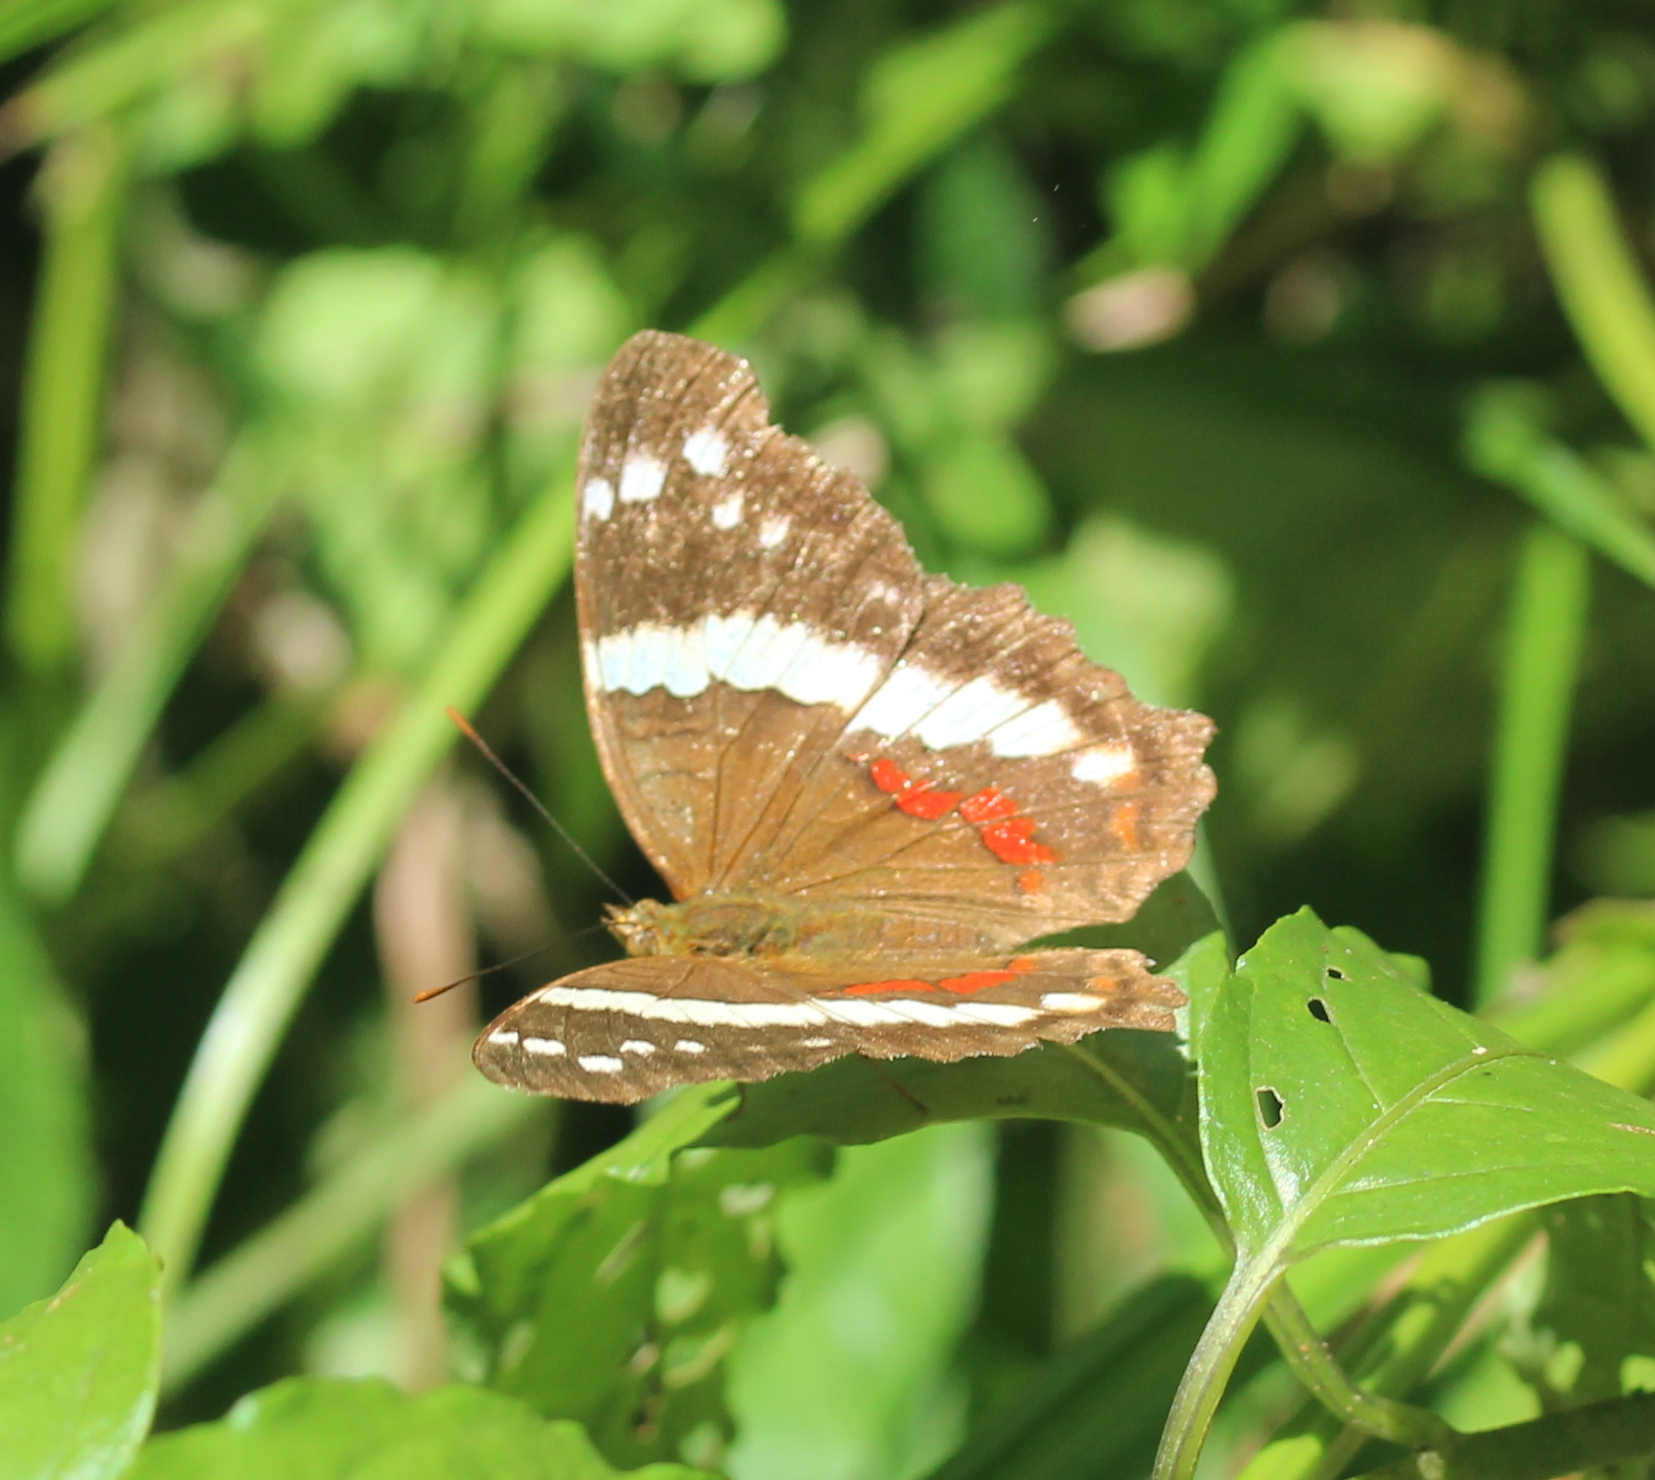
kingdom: Animalia
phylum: Arthropoda
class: Insecta
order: Lepidoptera
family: Nymphalidae
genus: Anartia
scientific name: Anartia fatima
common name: Banded peacock
